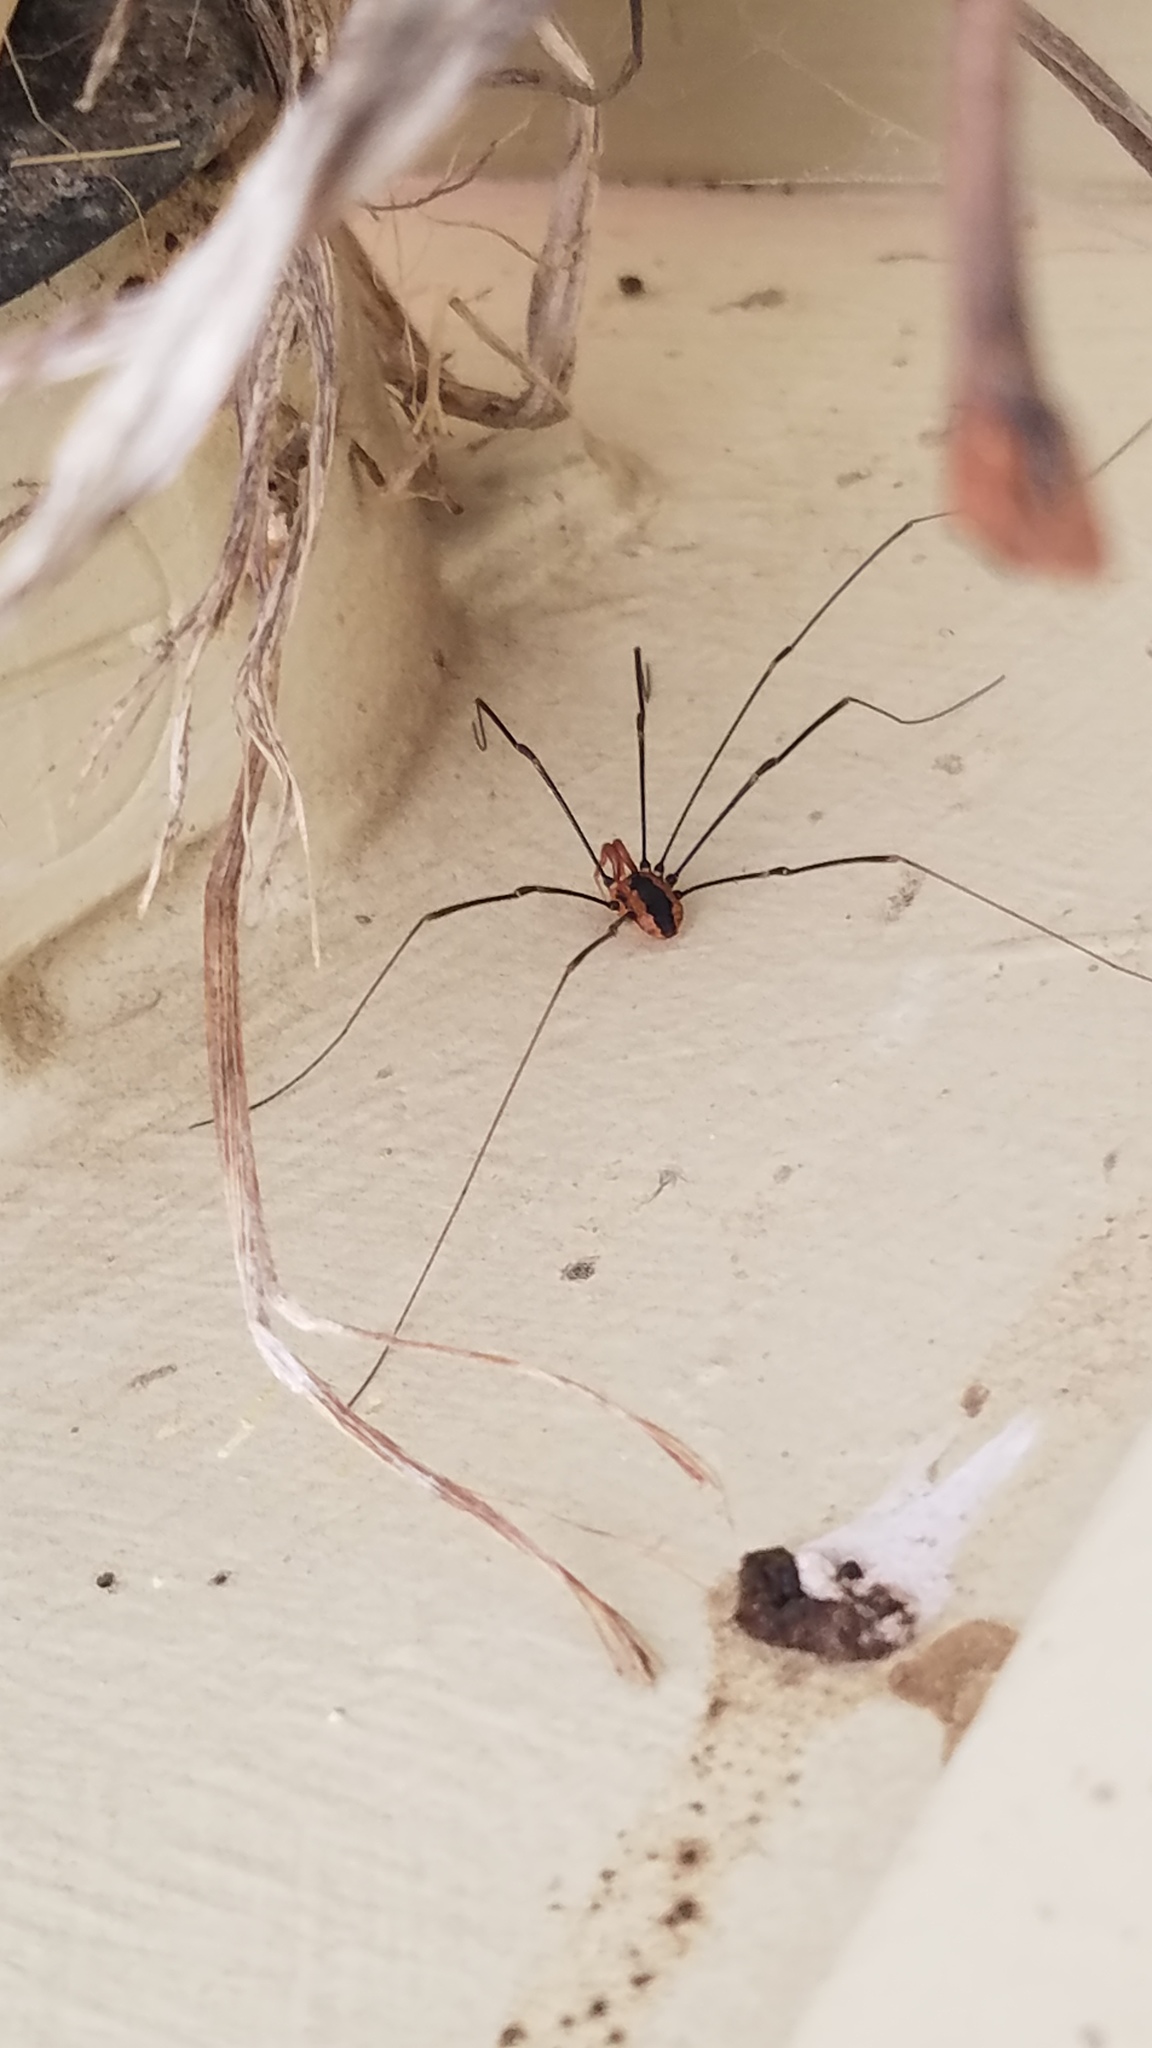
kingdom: Animalia
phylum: Arthropoda
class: Arachnida
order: Opiliones
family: Sclerosomatidae
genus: Leiobunum
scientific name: Leiobunum vittatum
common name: Eastern harvestman
